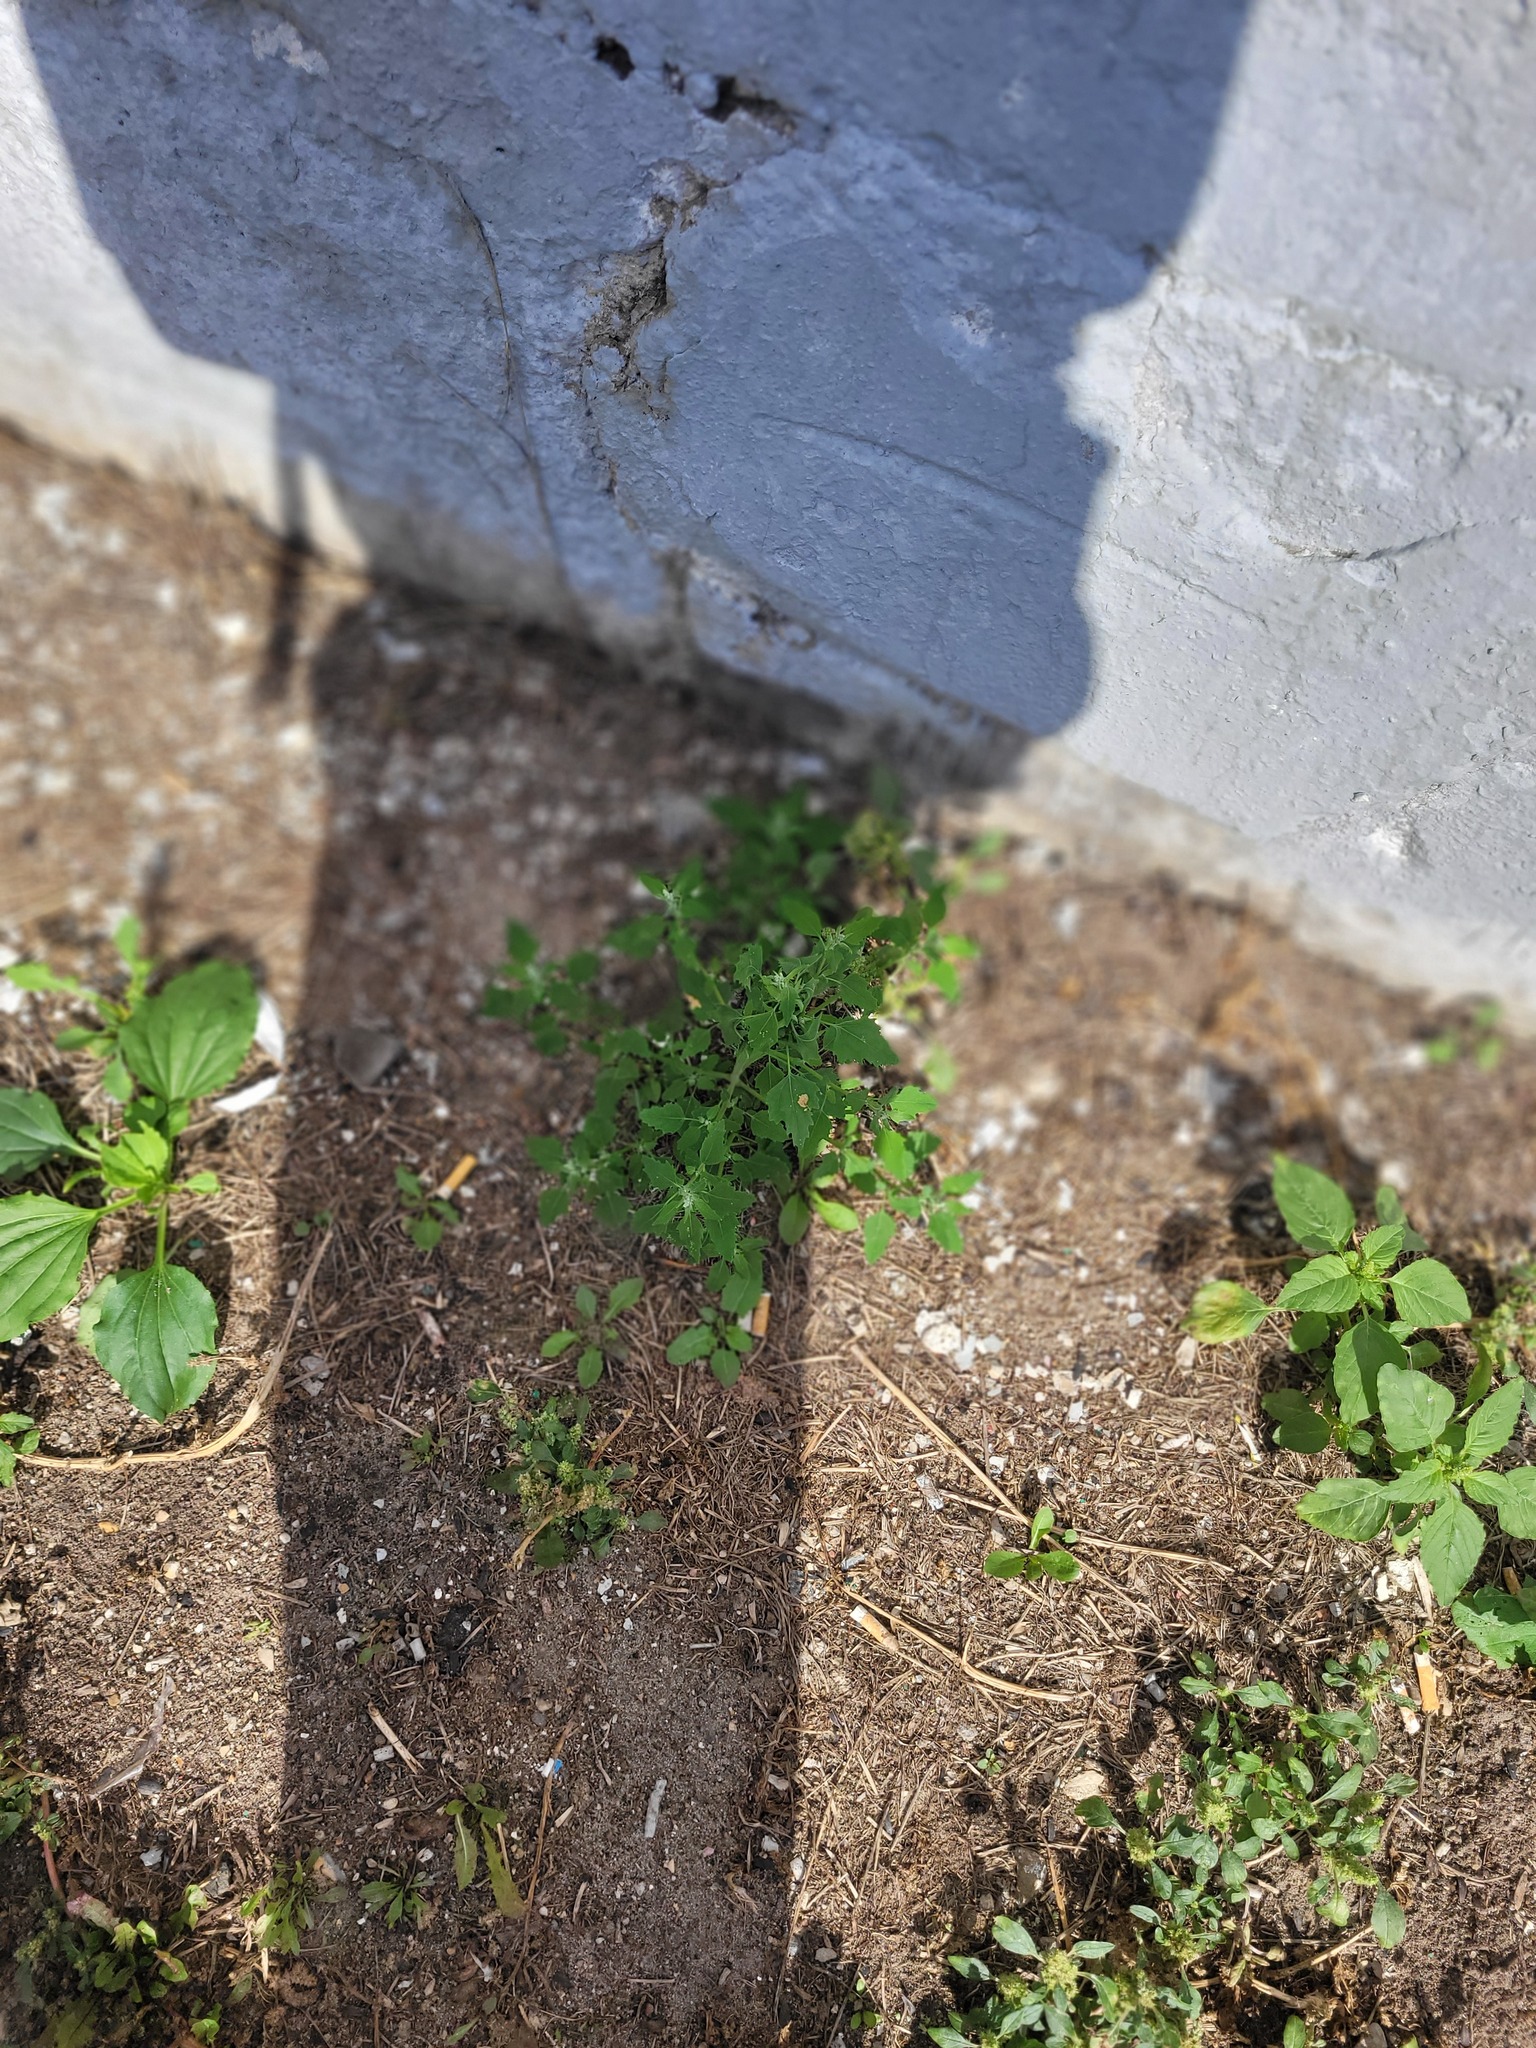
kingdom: Plantae
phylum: Tracheophyta
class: Magnoliopsida
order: Caryophyllales
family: Amaranthaceae
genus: Chenopodium
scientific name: Chenopodium album
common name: Fat-hen
